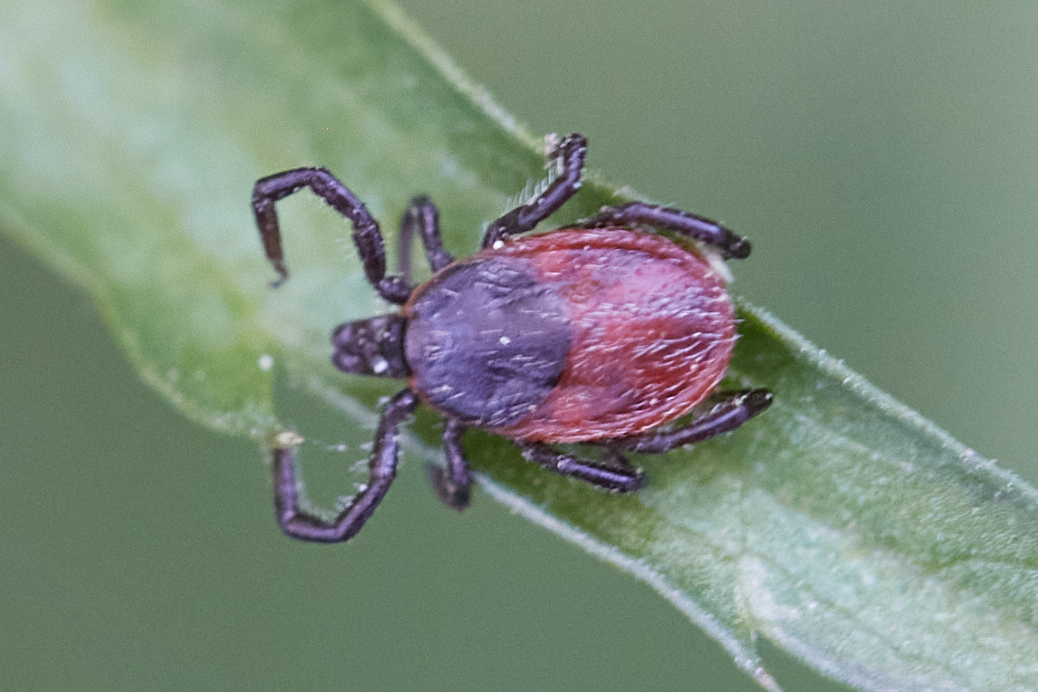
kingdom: Animalia
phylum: Arthropoda
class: Arachnida
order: Ixodida
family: Ixodidae
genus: Ixodes
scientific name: Ixodes pacificus
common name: California black-legged tick
